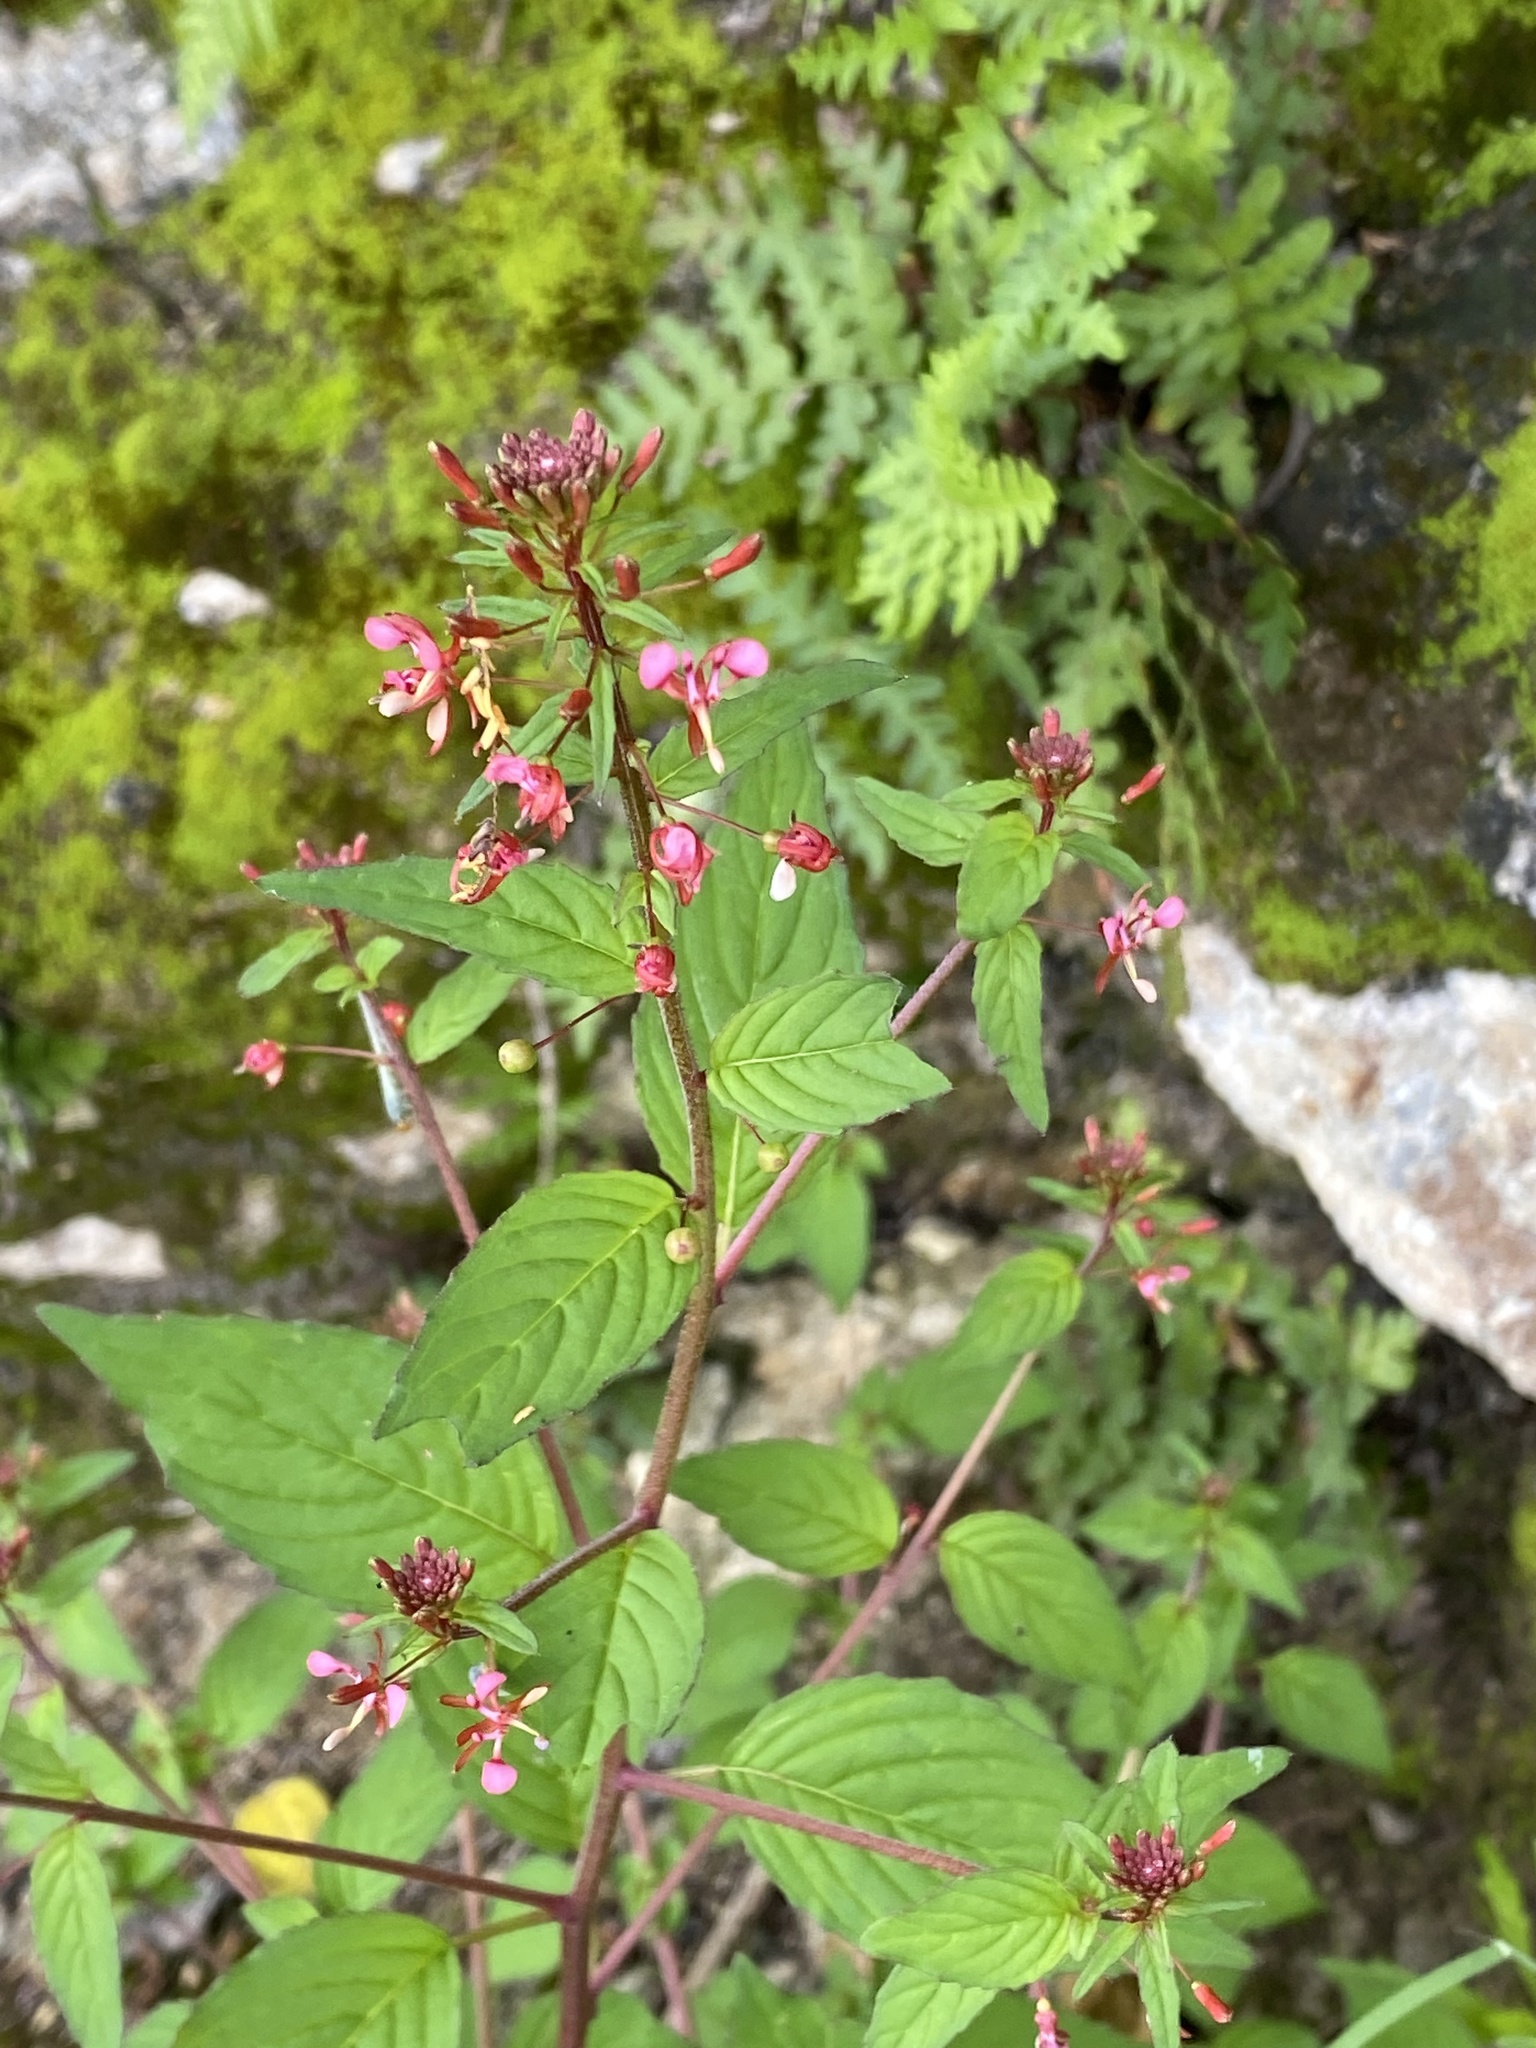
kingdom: Plantae
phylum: Tracheophyta
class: Magnoliopsida
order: Myrtales
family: Onagraceae
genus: Lopezia
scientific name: Lopezia racemosa
